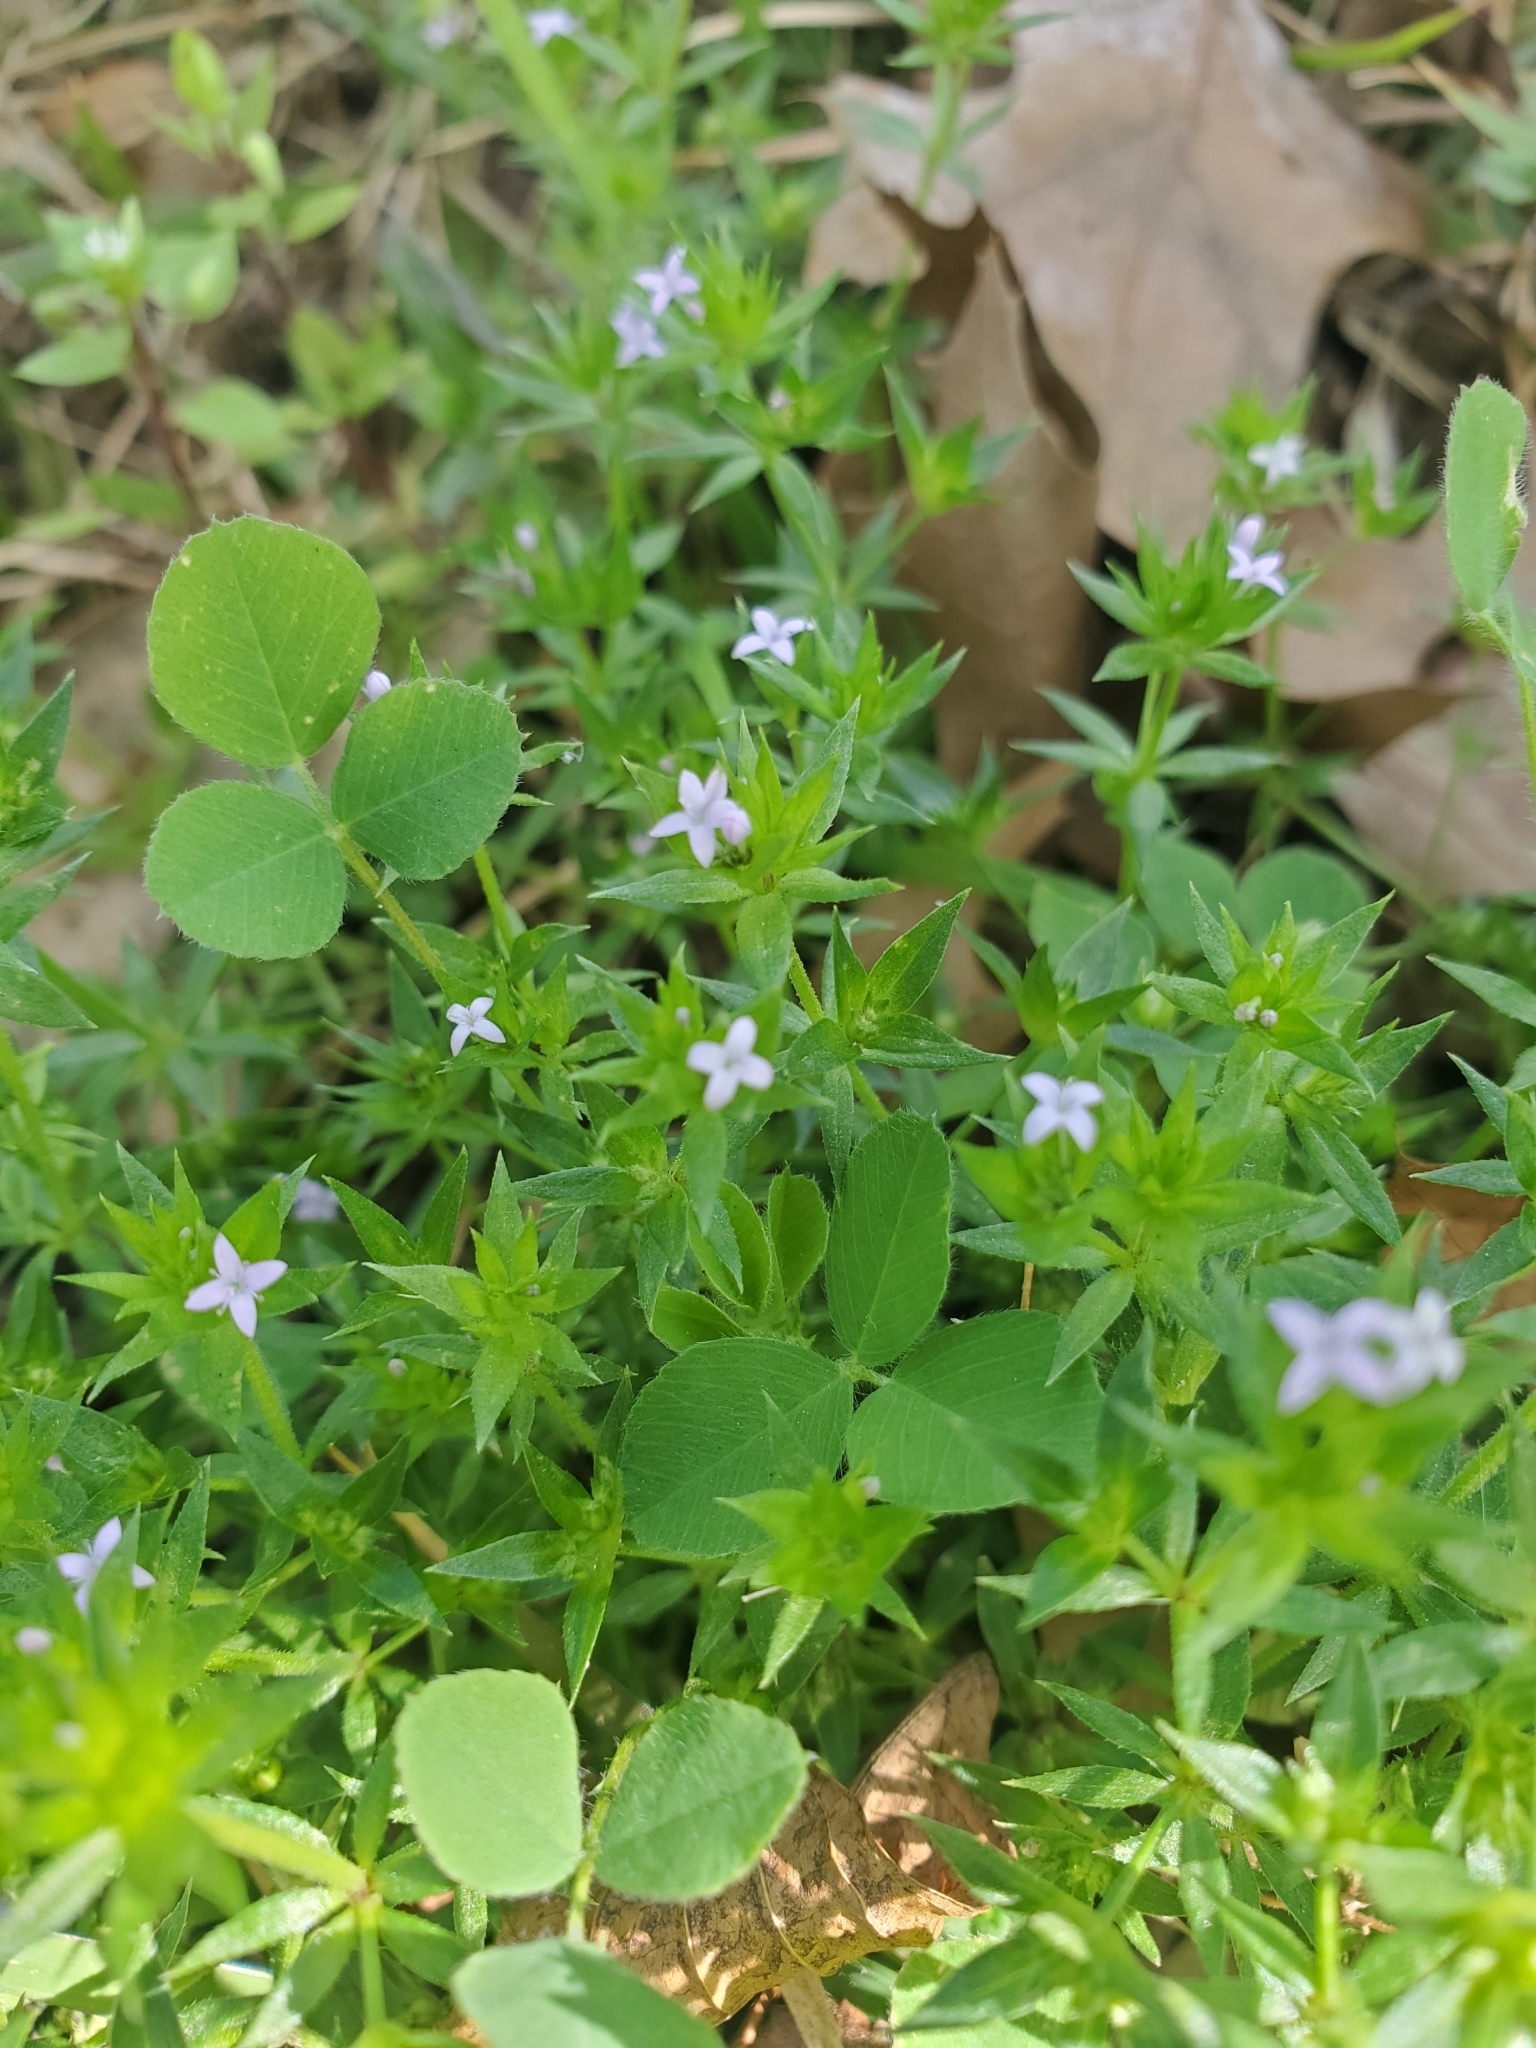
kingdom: Plantae
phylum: Tracheophyta
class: Magnoliopsida
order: Gentianales
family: Rubiaceae
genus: Sherardia
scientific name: Sherardia arvensis
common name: Field madder
